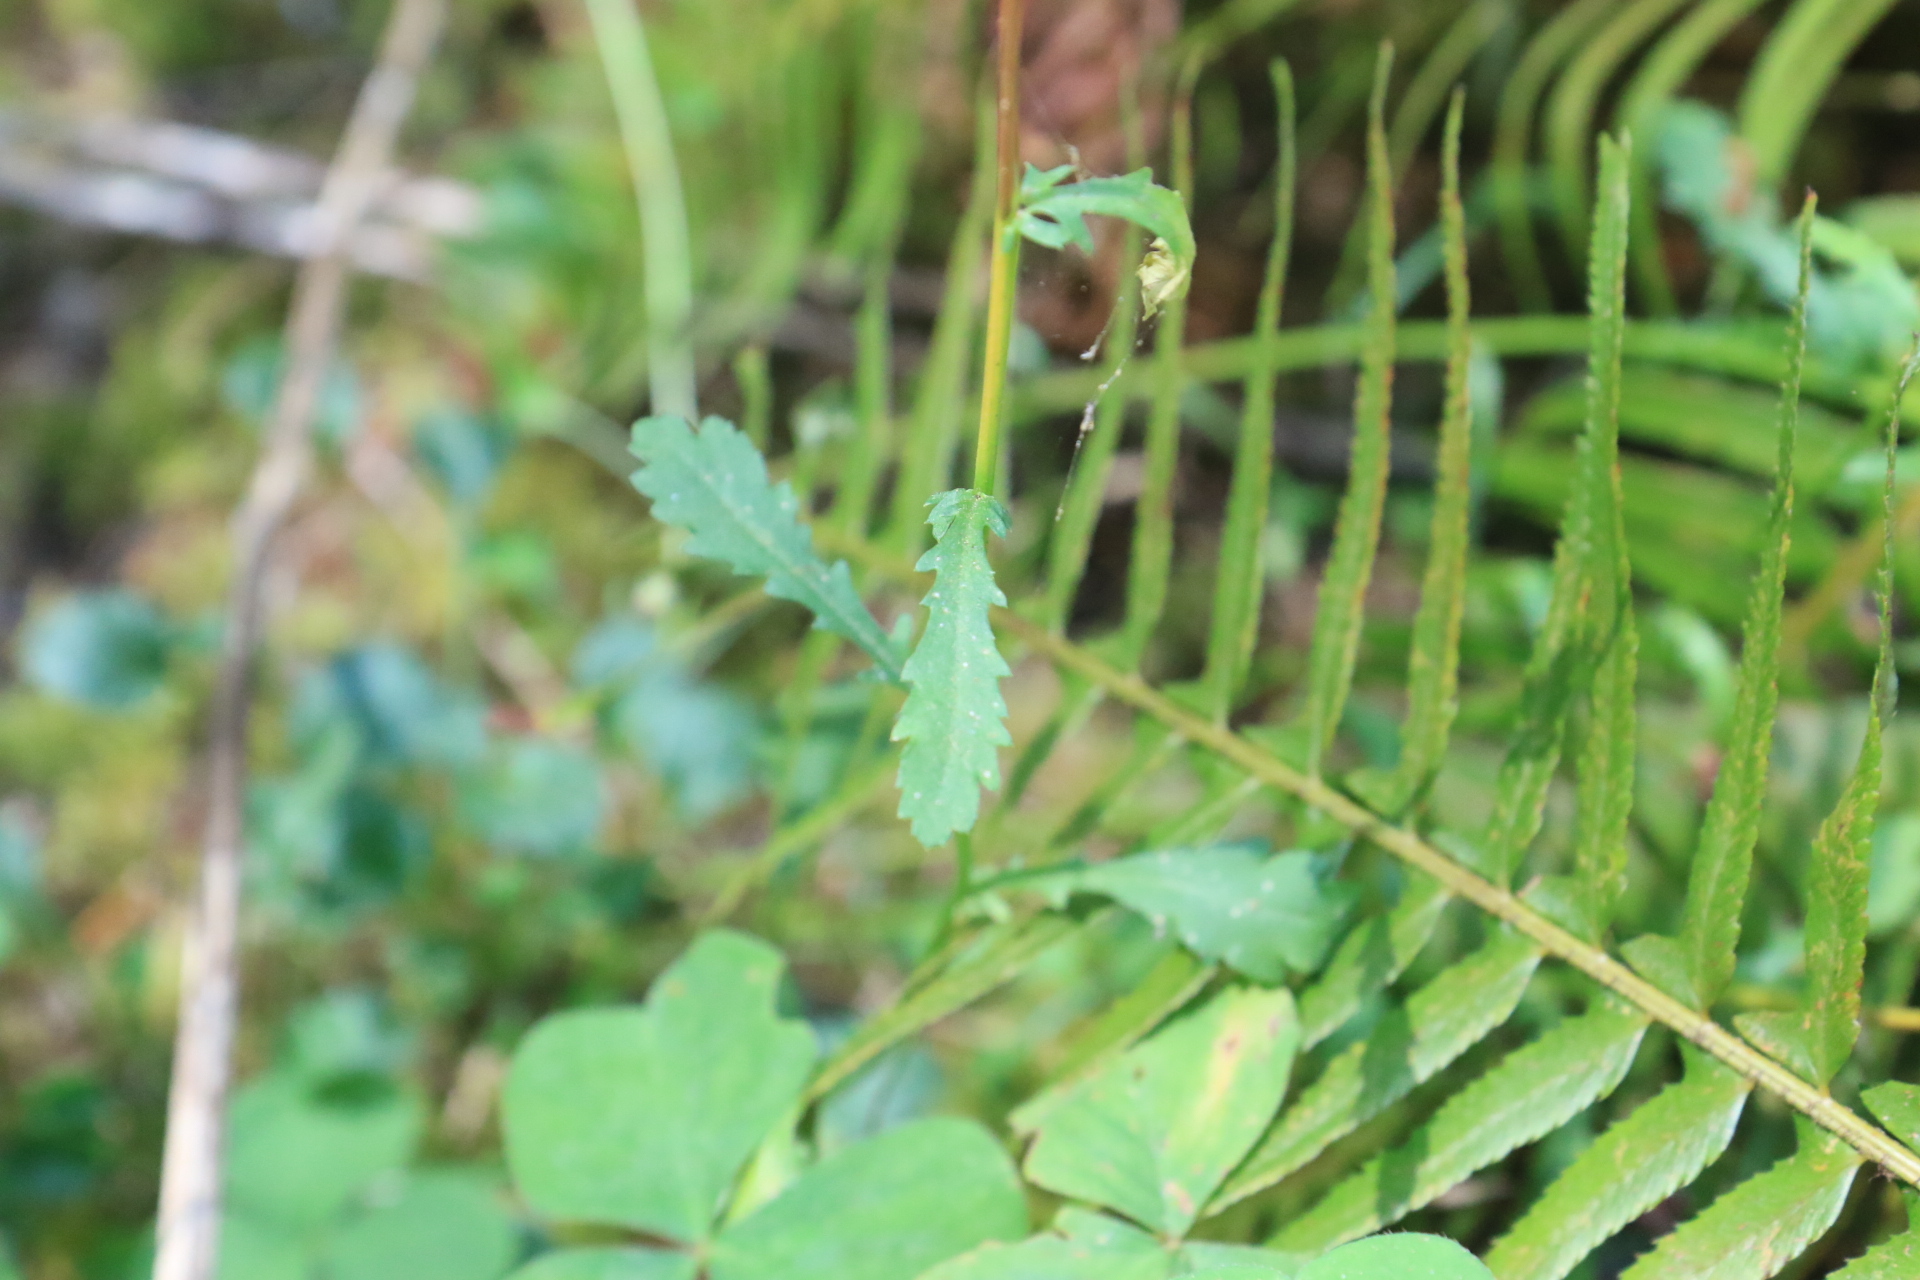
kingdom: Plantae
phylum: Tracheophyta
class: Magnoliopsida
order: Asterales
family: Asteraceae
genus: Leucanthemum
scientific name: Leucanthemum vulgare
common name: Oxeye daisy
